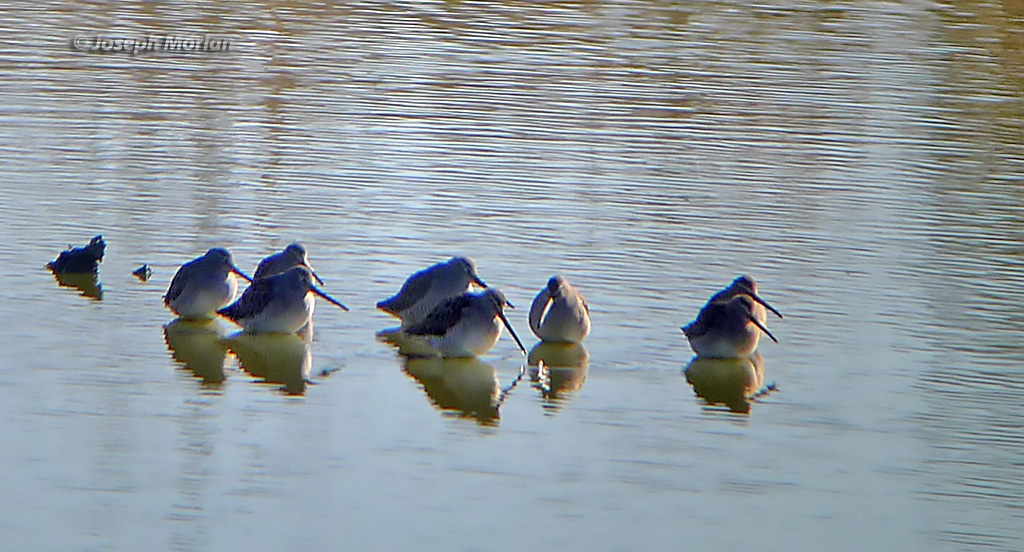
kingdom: Animalia
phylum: Chordata
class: Aves
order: Charadriiformes
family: Scolopacidae
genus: Limnodromus
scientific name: Limnodromus scolopaceus
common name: Long-billed dowitcher
